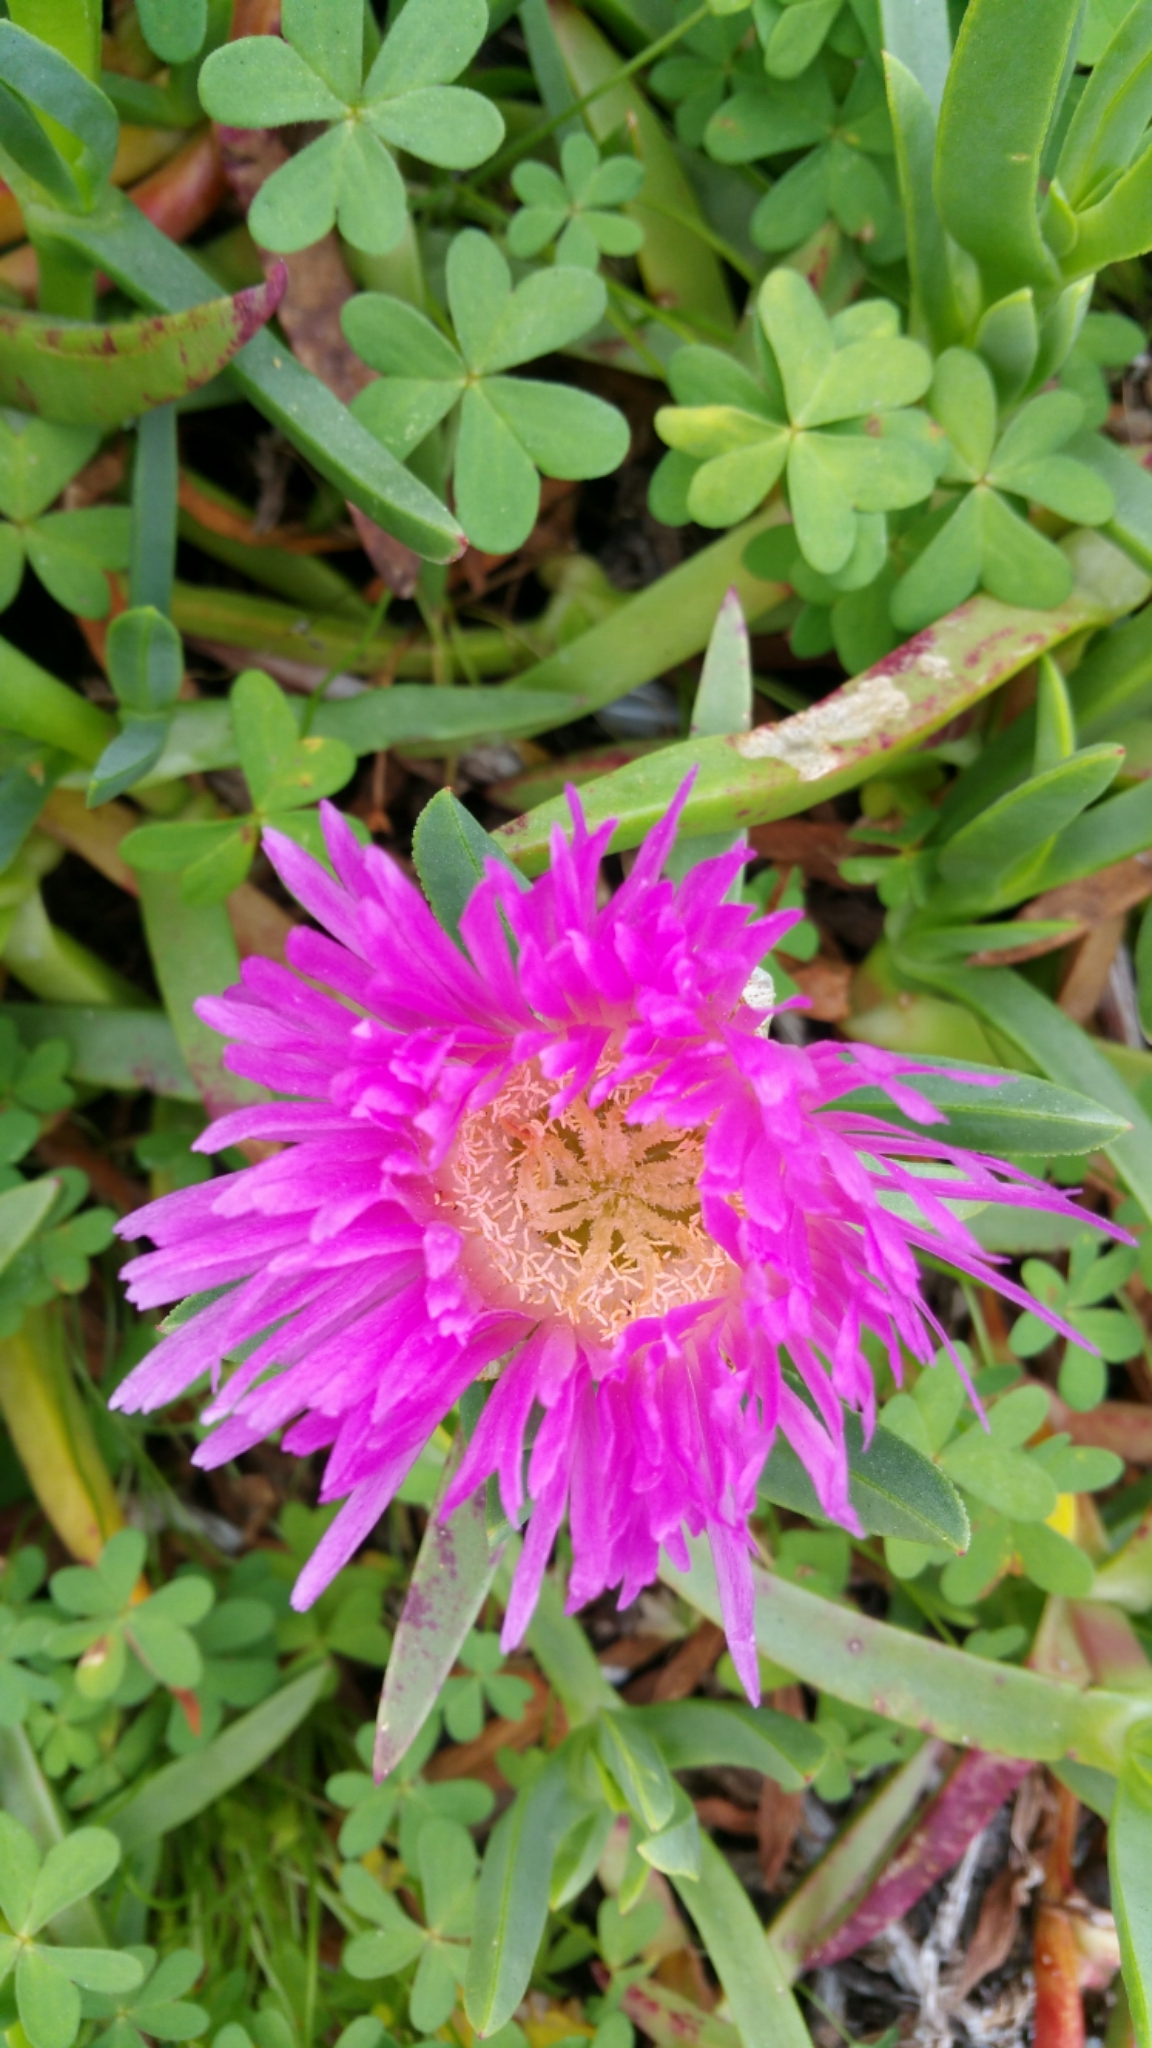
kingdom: Plantae
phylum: Tracheophyta
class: Magnoliopsida
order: Caryophyllales
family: Aizoaceae
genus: Carpobrotus
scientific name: Carpobrotus edulis
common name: Hottentot-fig
